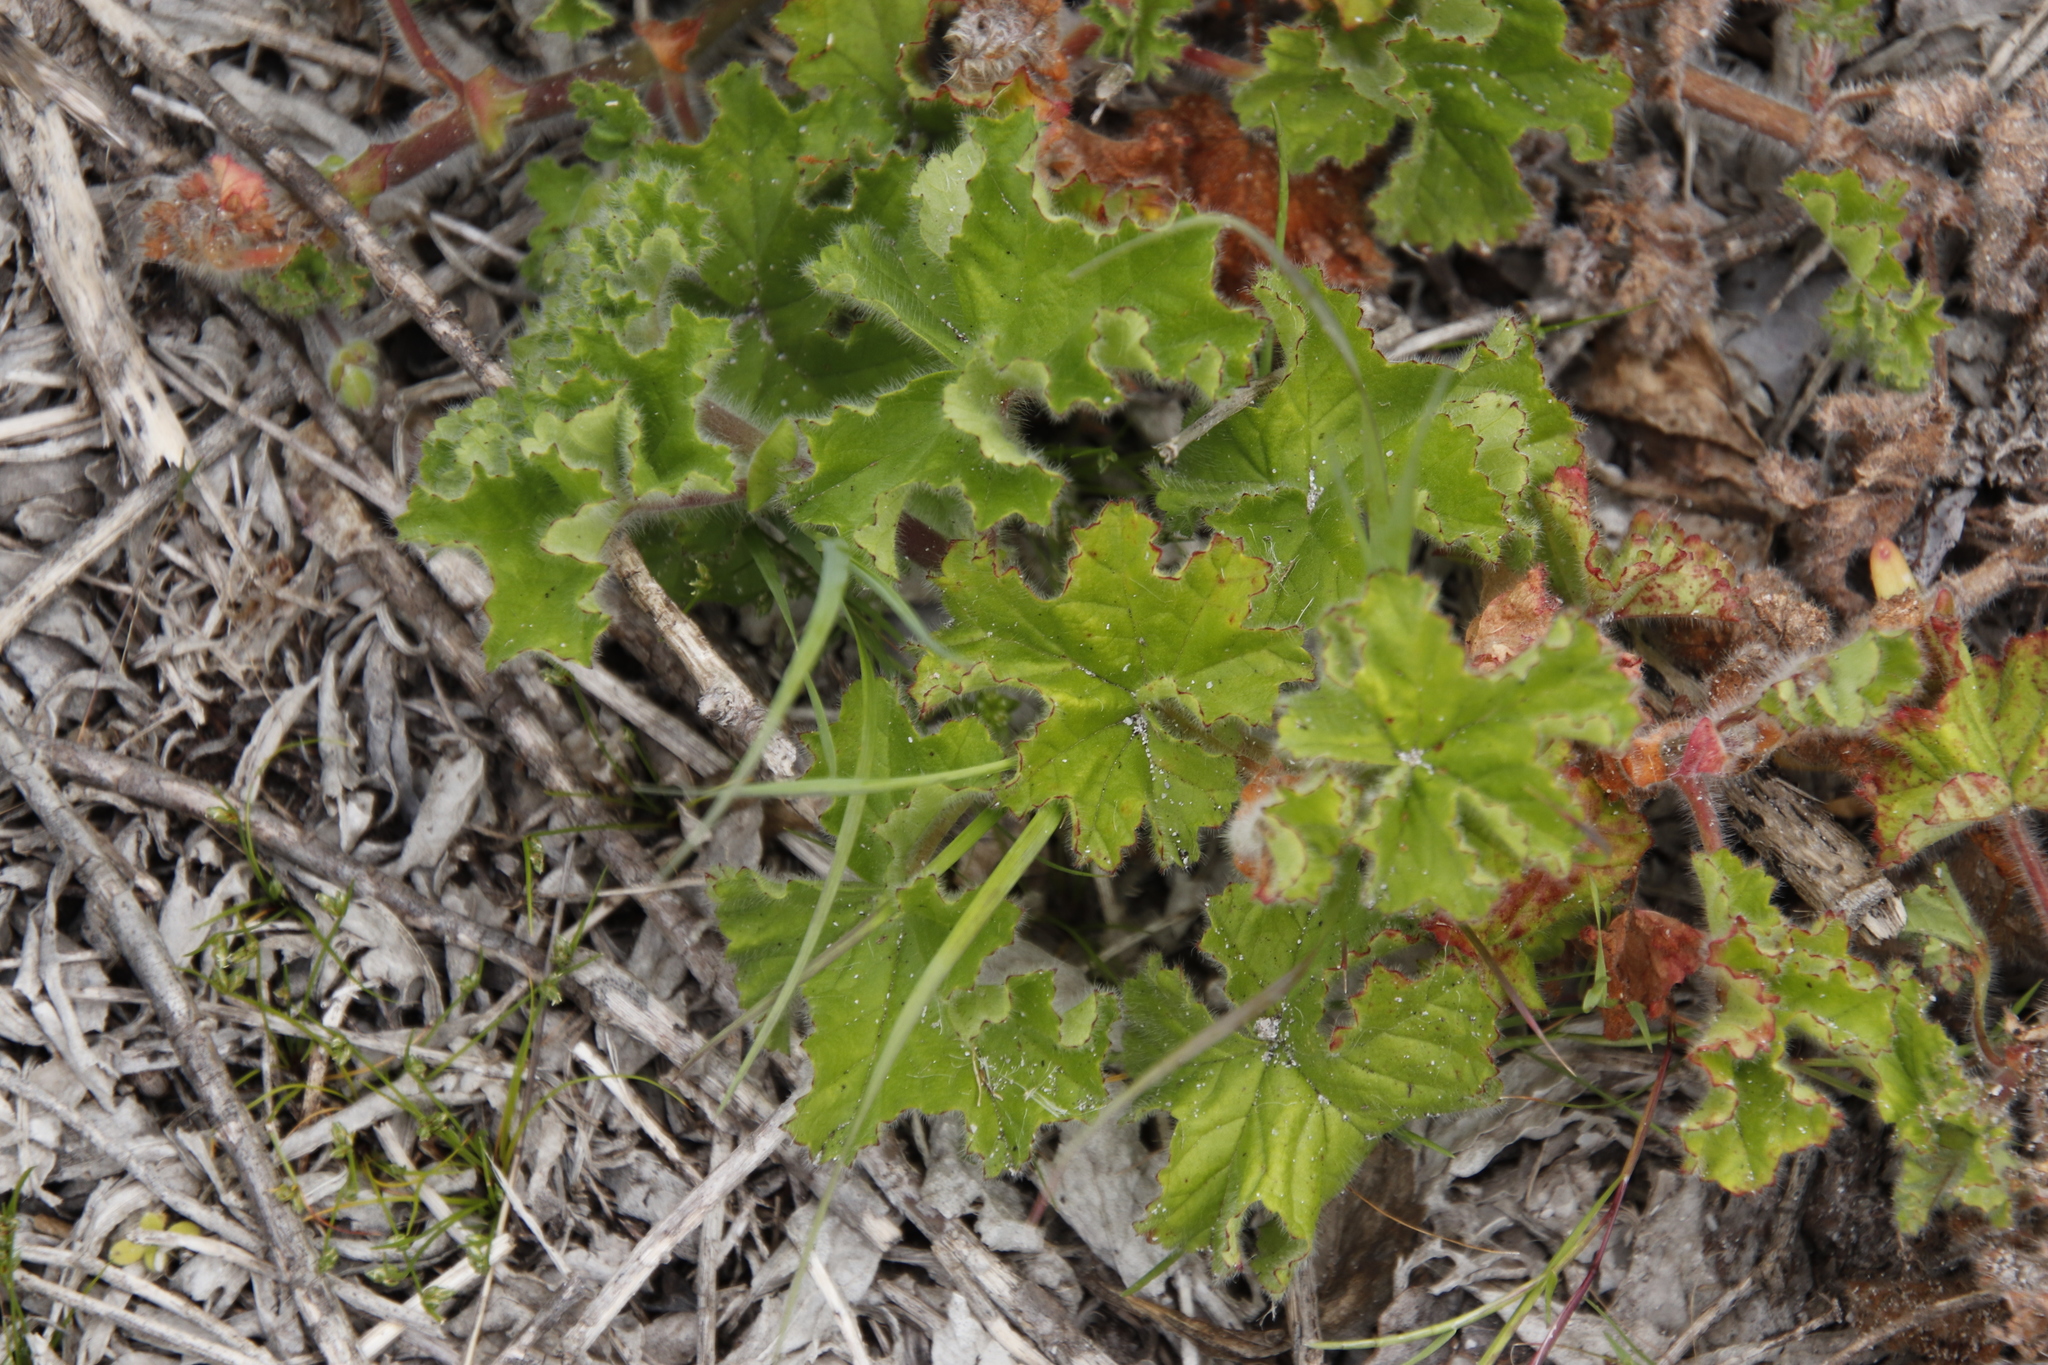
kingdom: Plantae
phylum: Tracheophyta
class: Magnoliopsida
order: Geraniales
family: Geraniaceae
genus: Pelargonium
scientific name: Pelargonium capitatum
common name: Rose scented geranium
